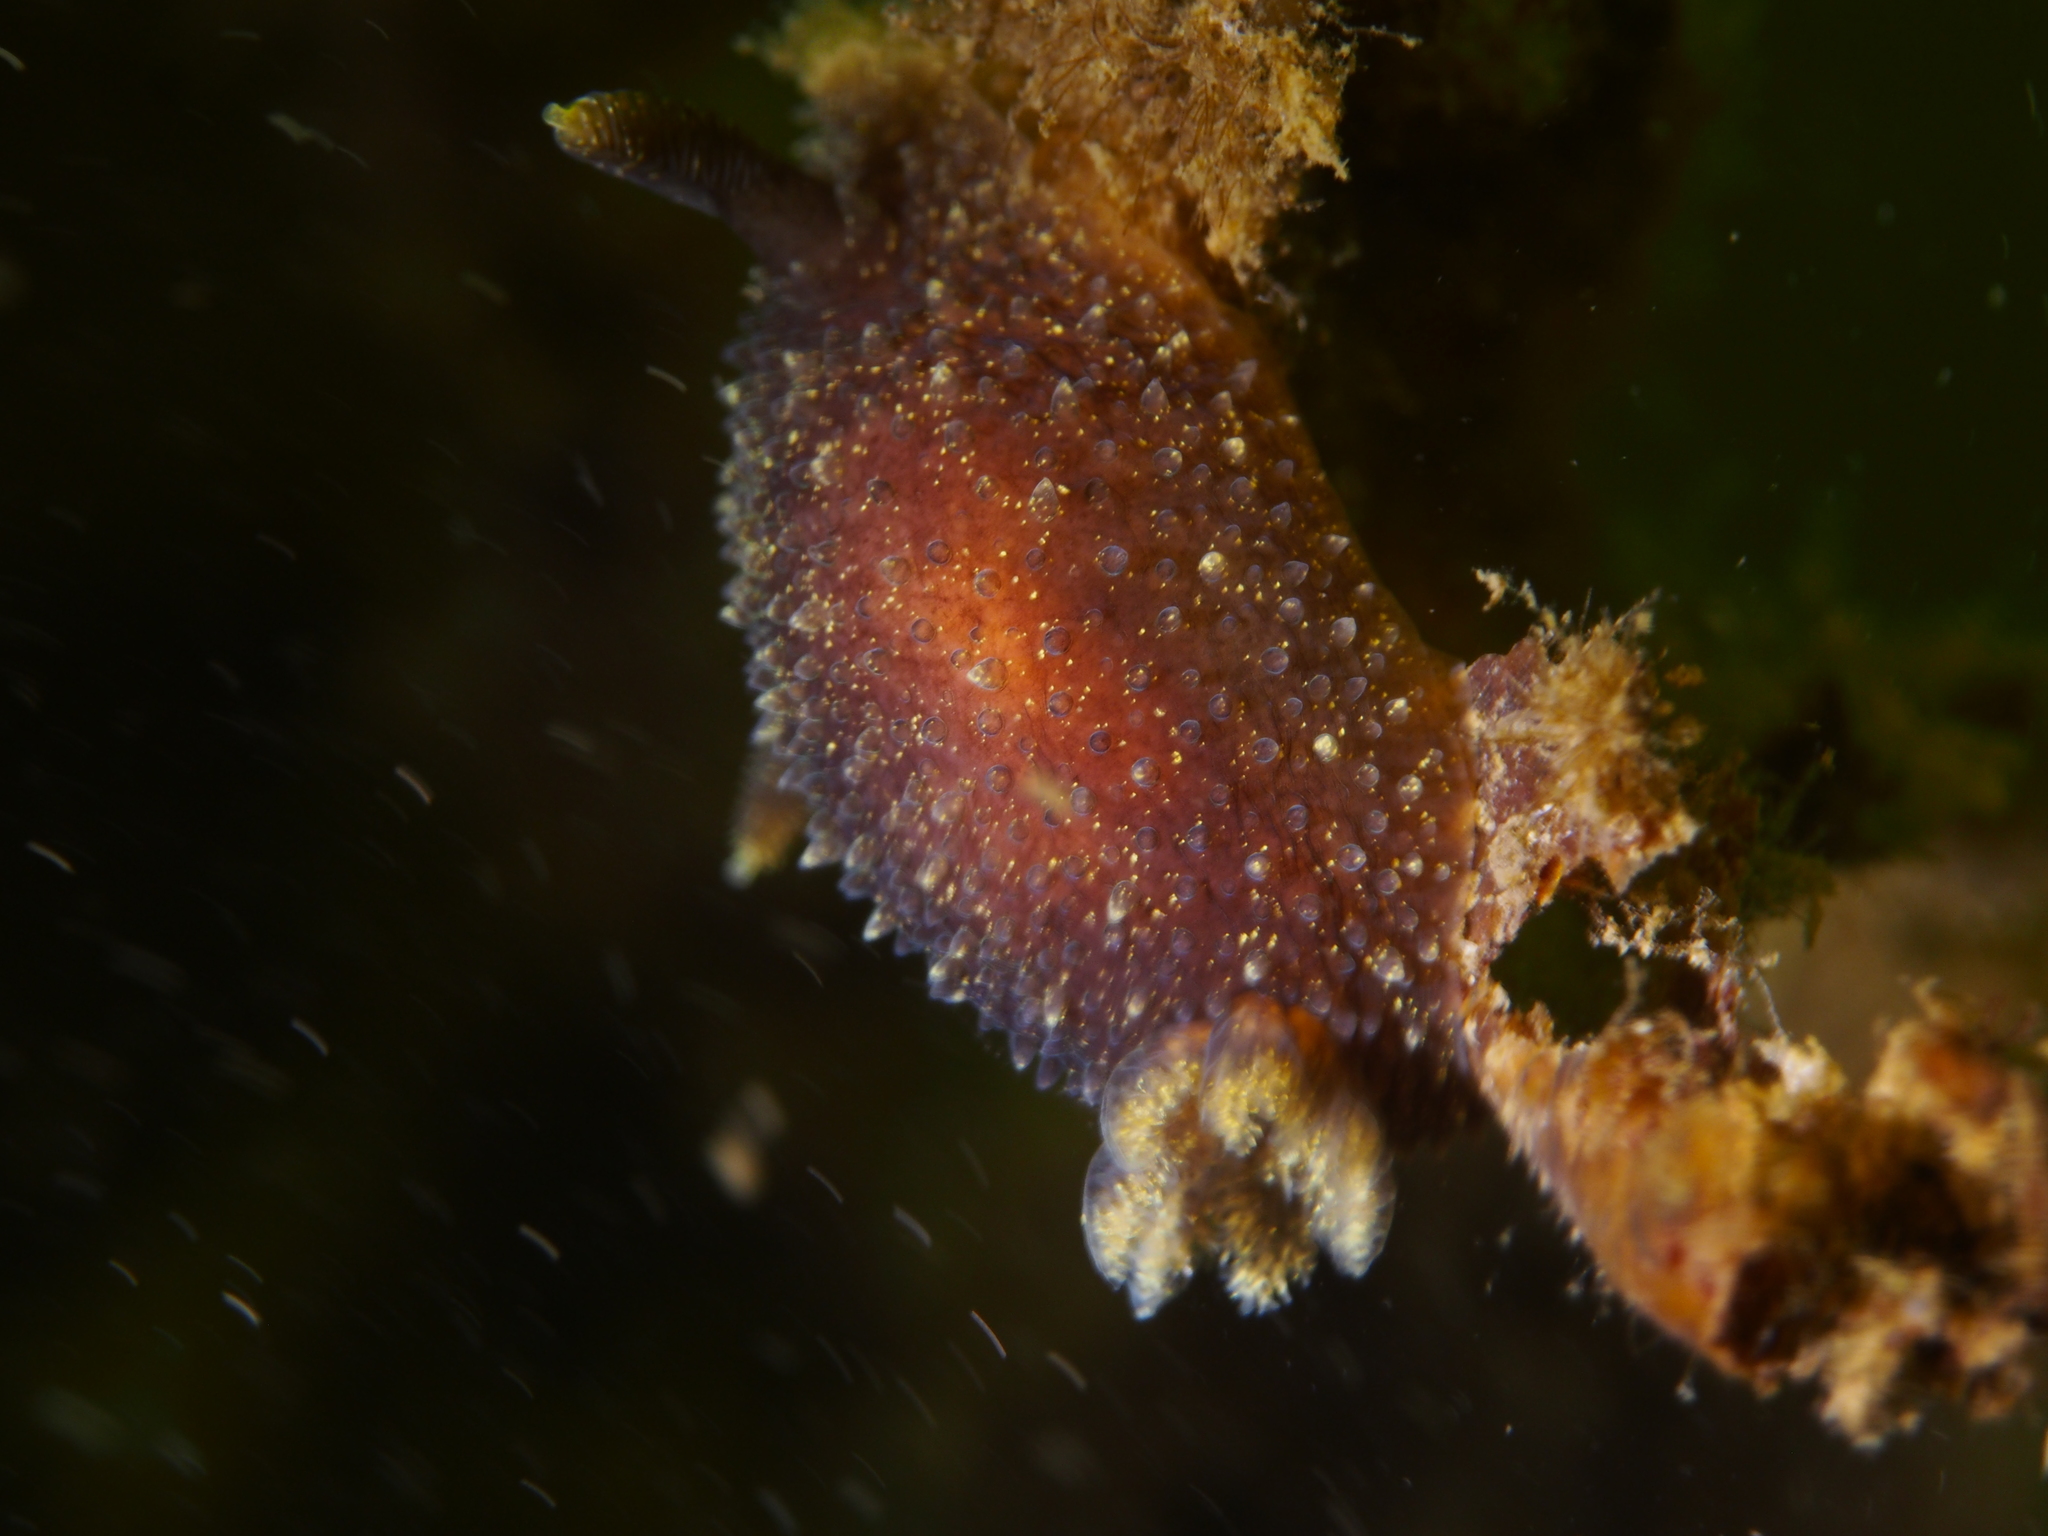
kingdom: Animalia
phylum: Mollusca
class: Gastropoda
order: Nudibranchia
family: Onchidorididae
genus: Acanthodoris
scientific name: Acanthodoris pilosa
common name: Hairy spiny doris
